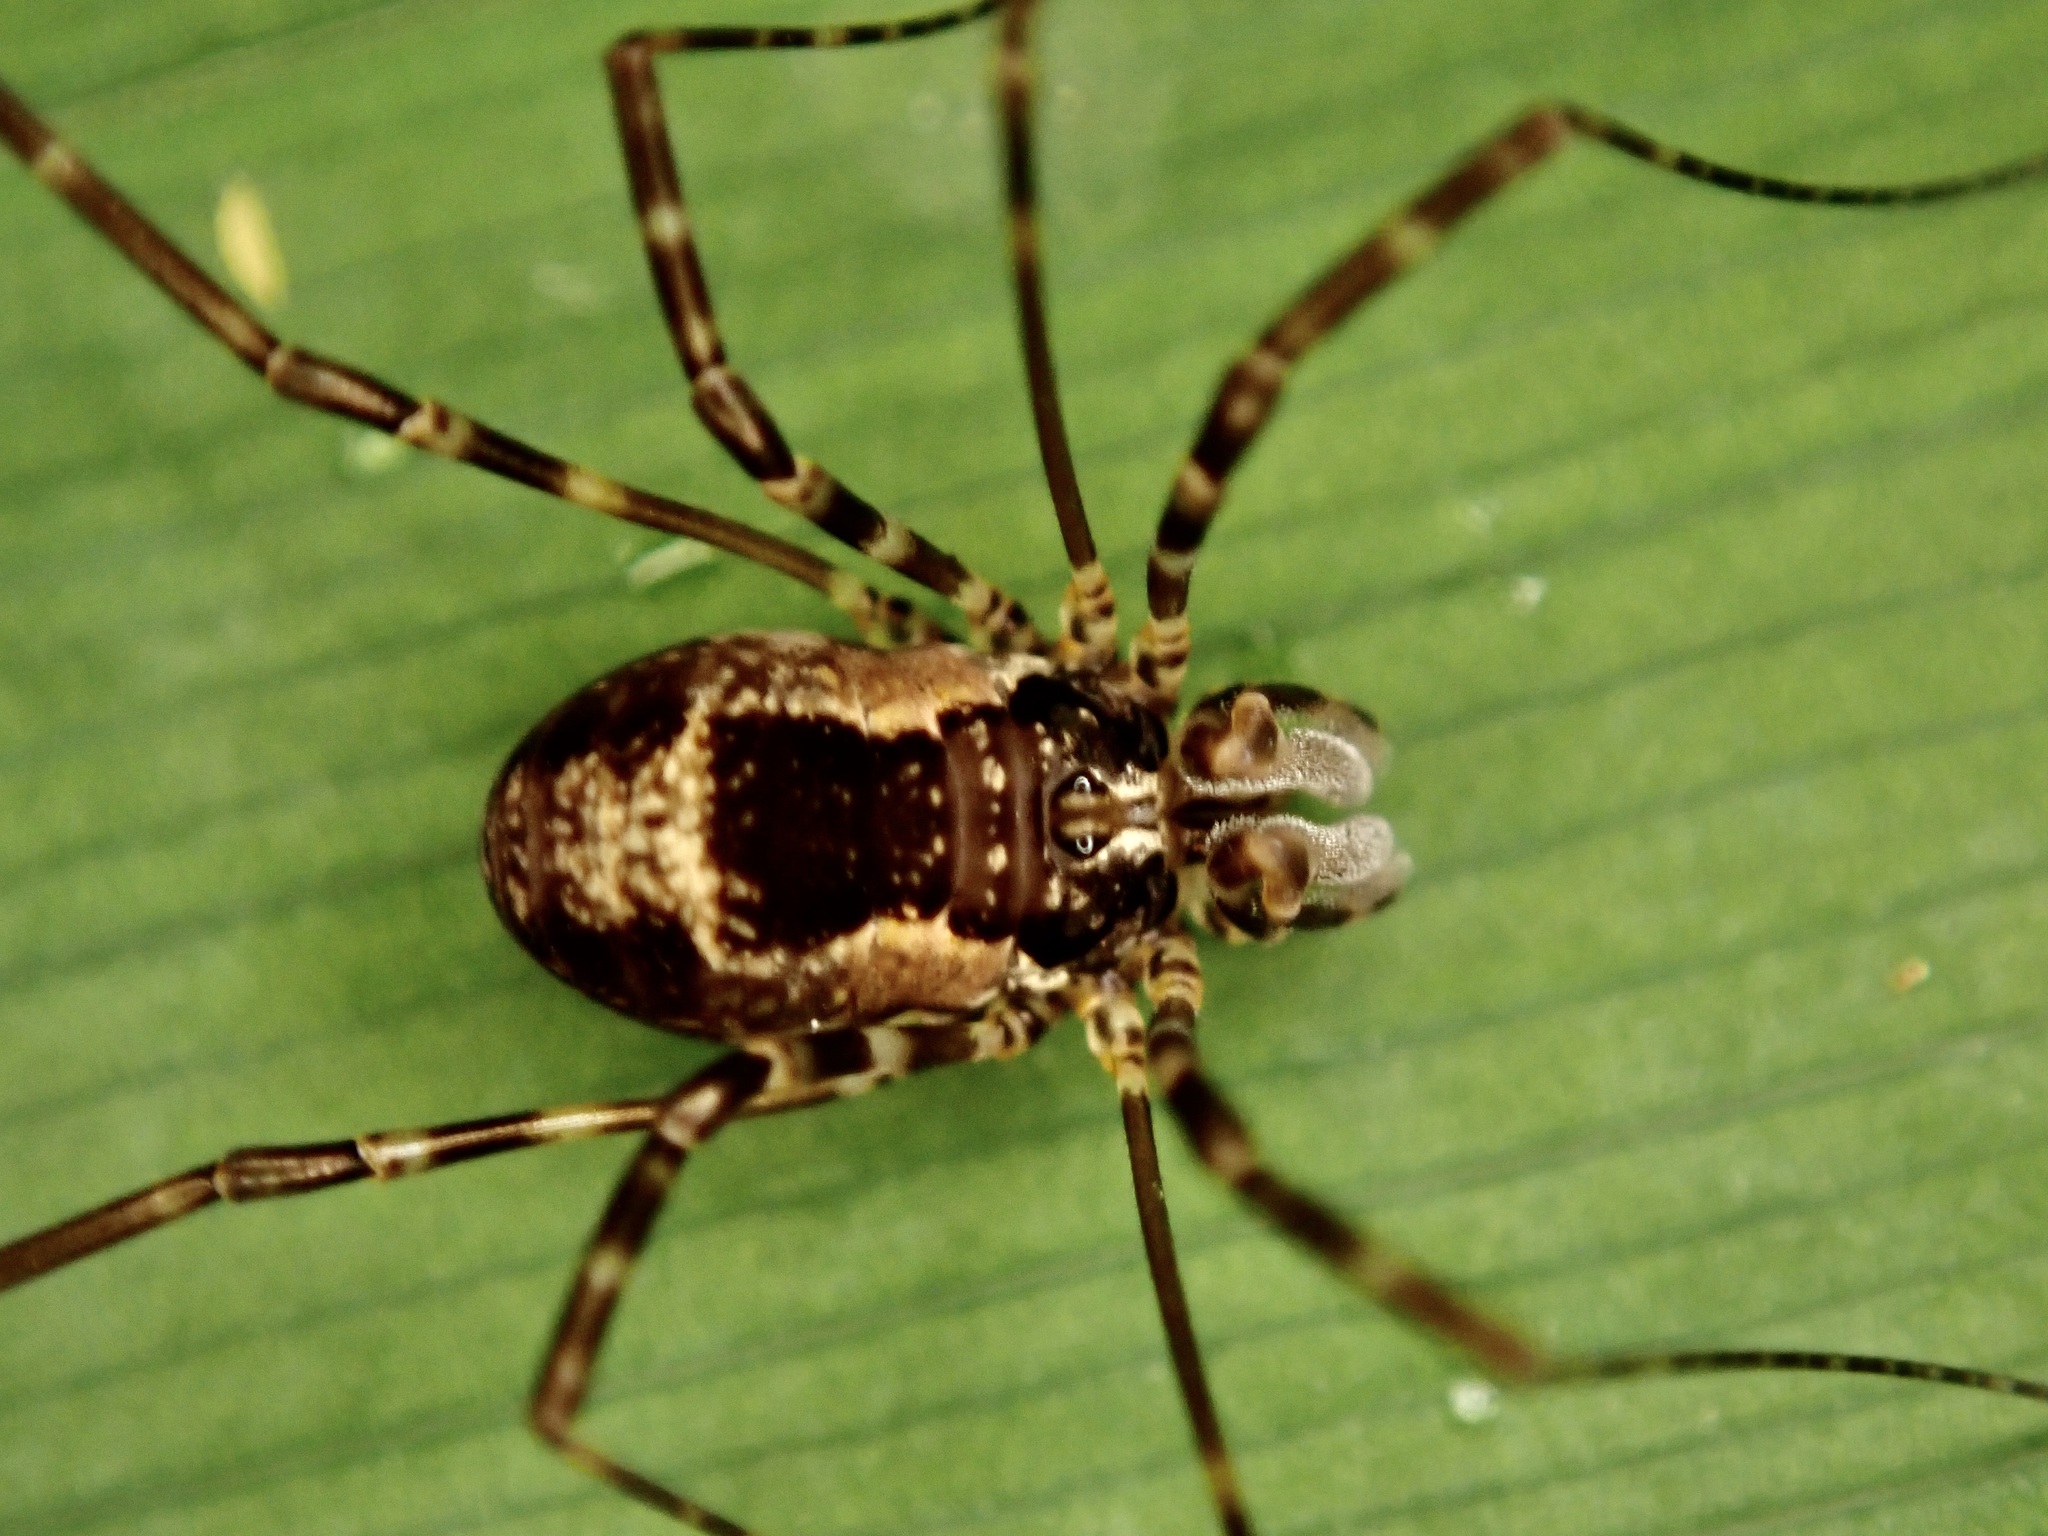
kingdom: Animalia
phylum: Arthropoda
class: Arachnida
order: Opiliones
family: Neopilionidae
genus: Megalopsalis
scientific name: Megalopsalis triascuta
